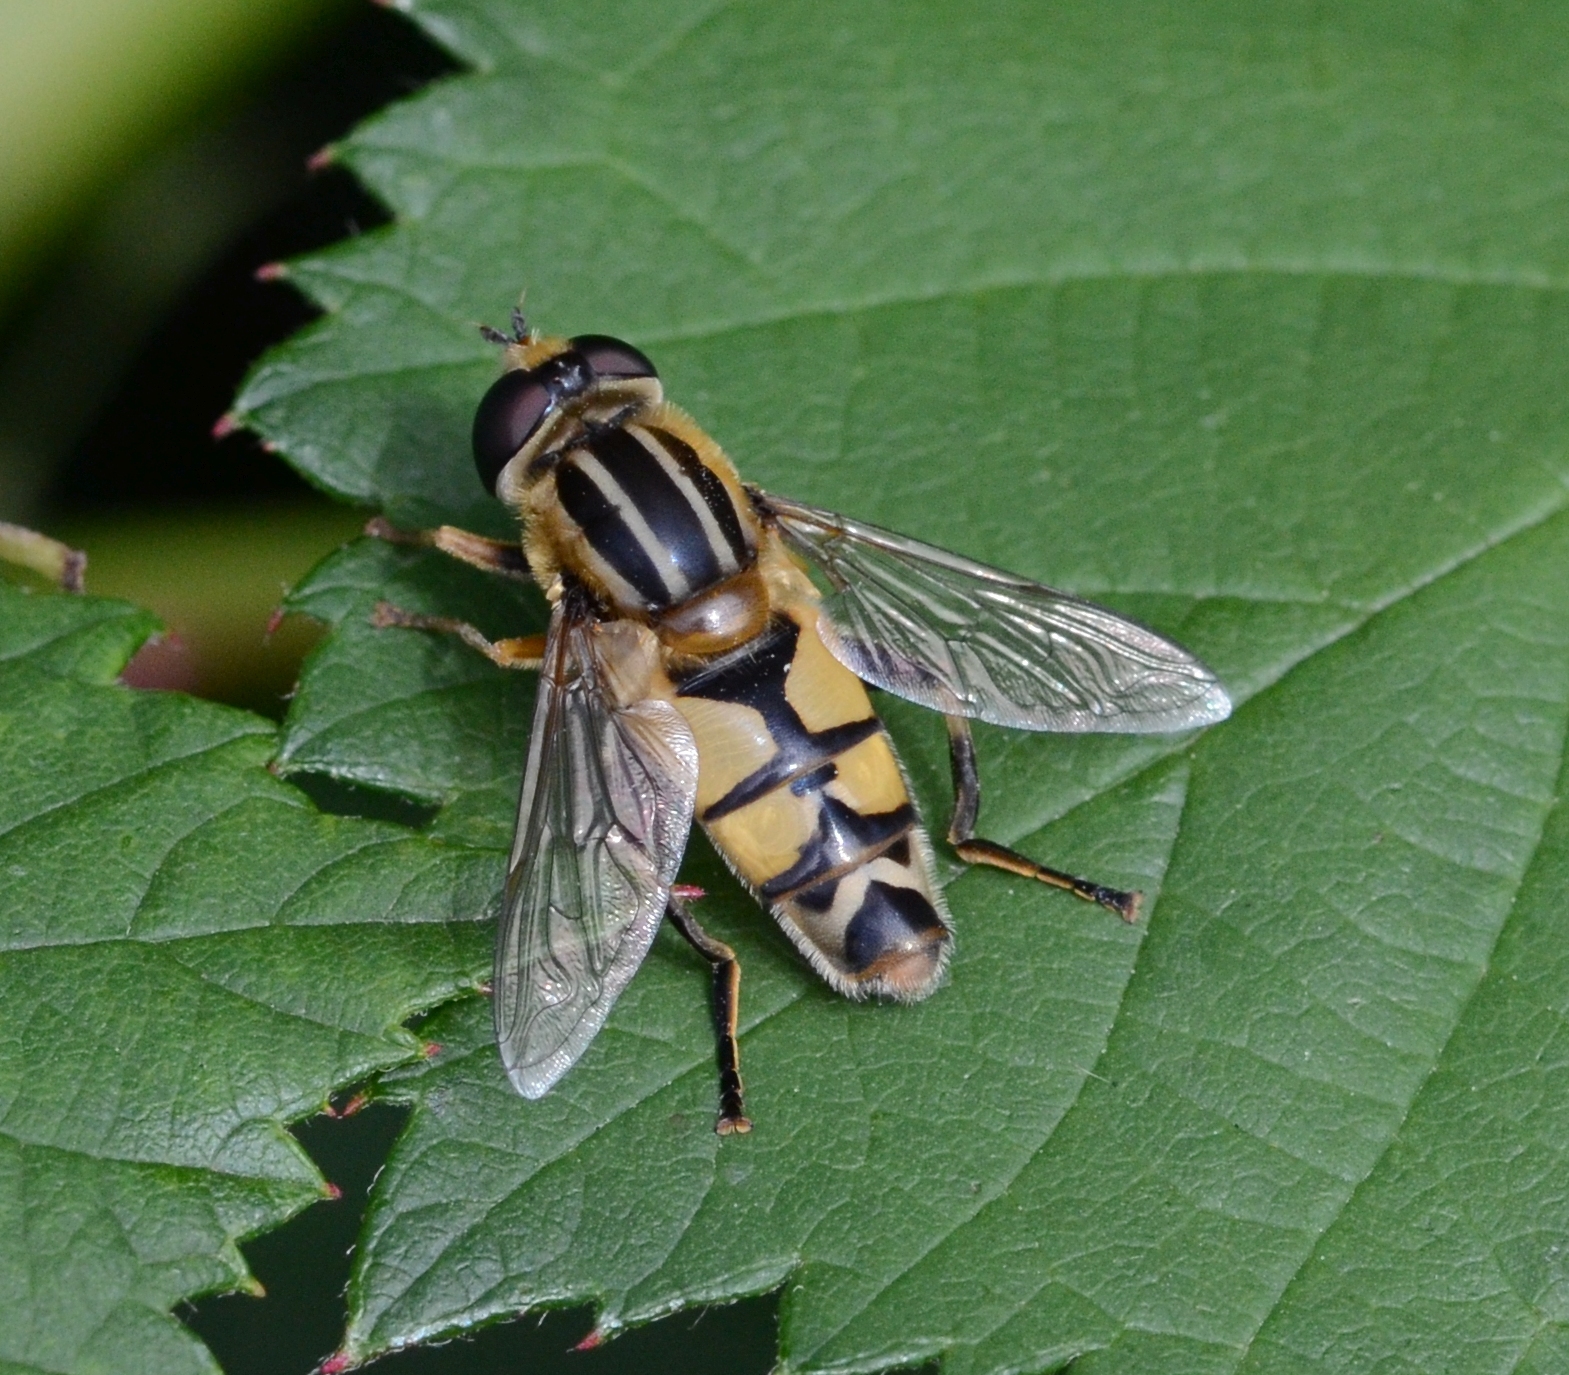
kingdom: Animalia
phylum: Arthropoda
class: Insecta
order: Diptera
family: Syrphidae
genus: Helophilus
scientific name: Helophilus trivittatus
